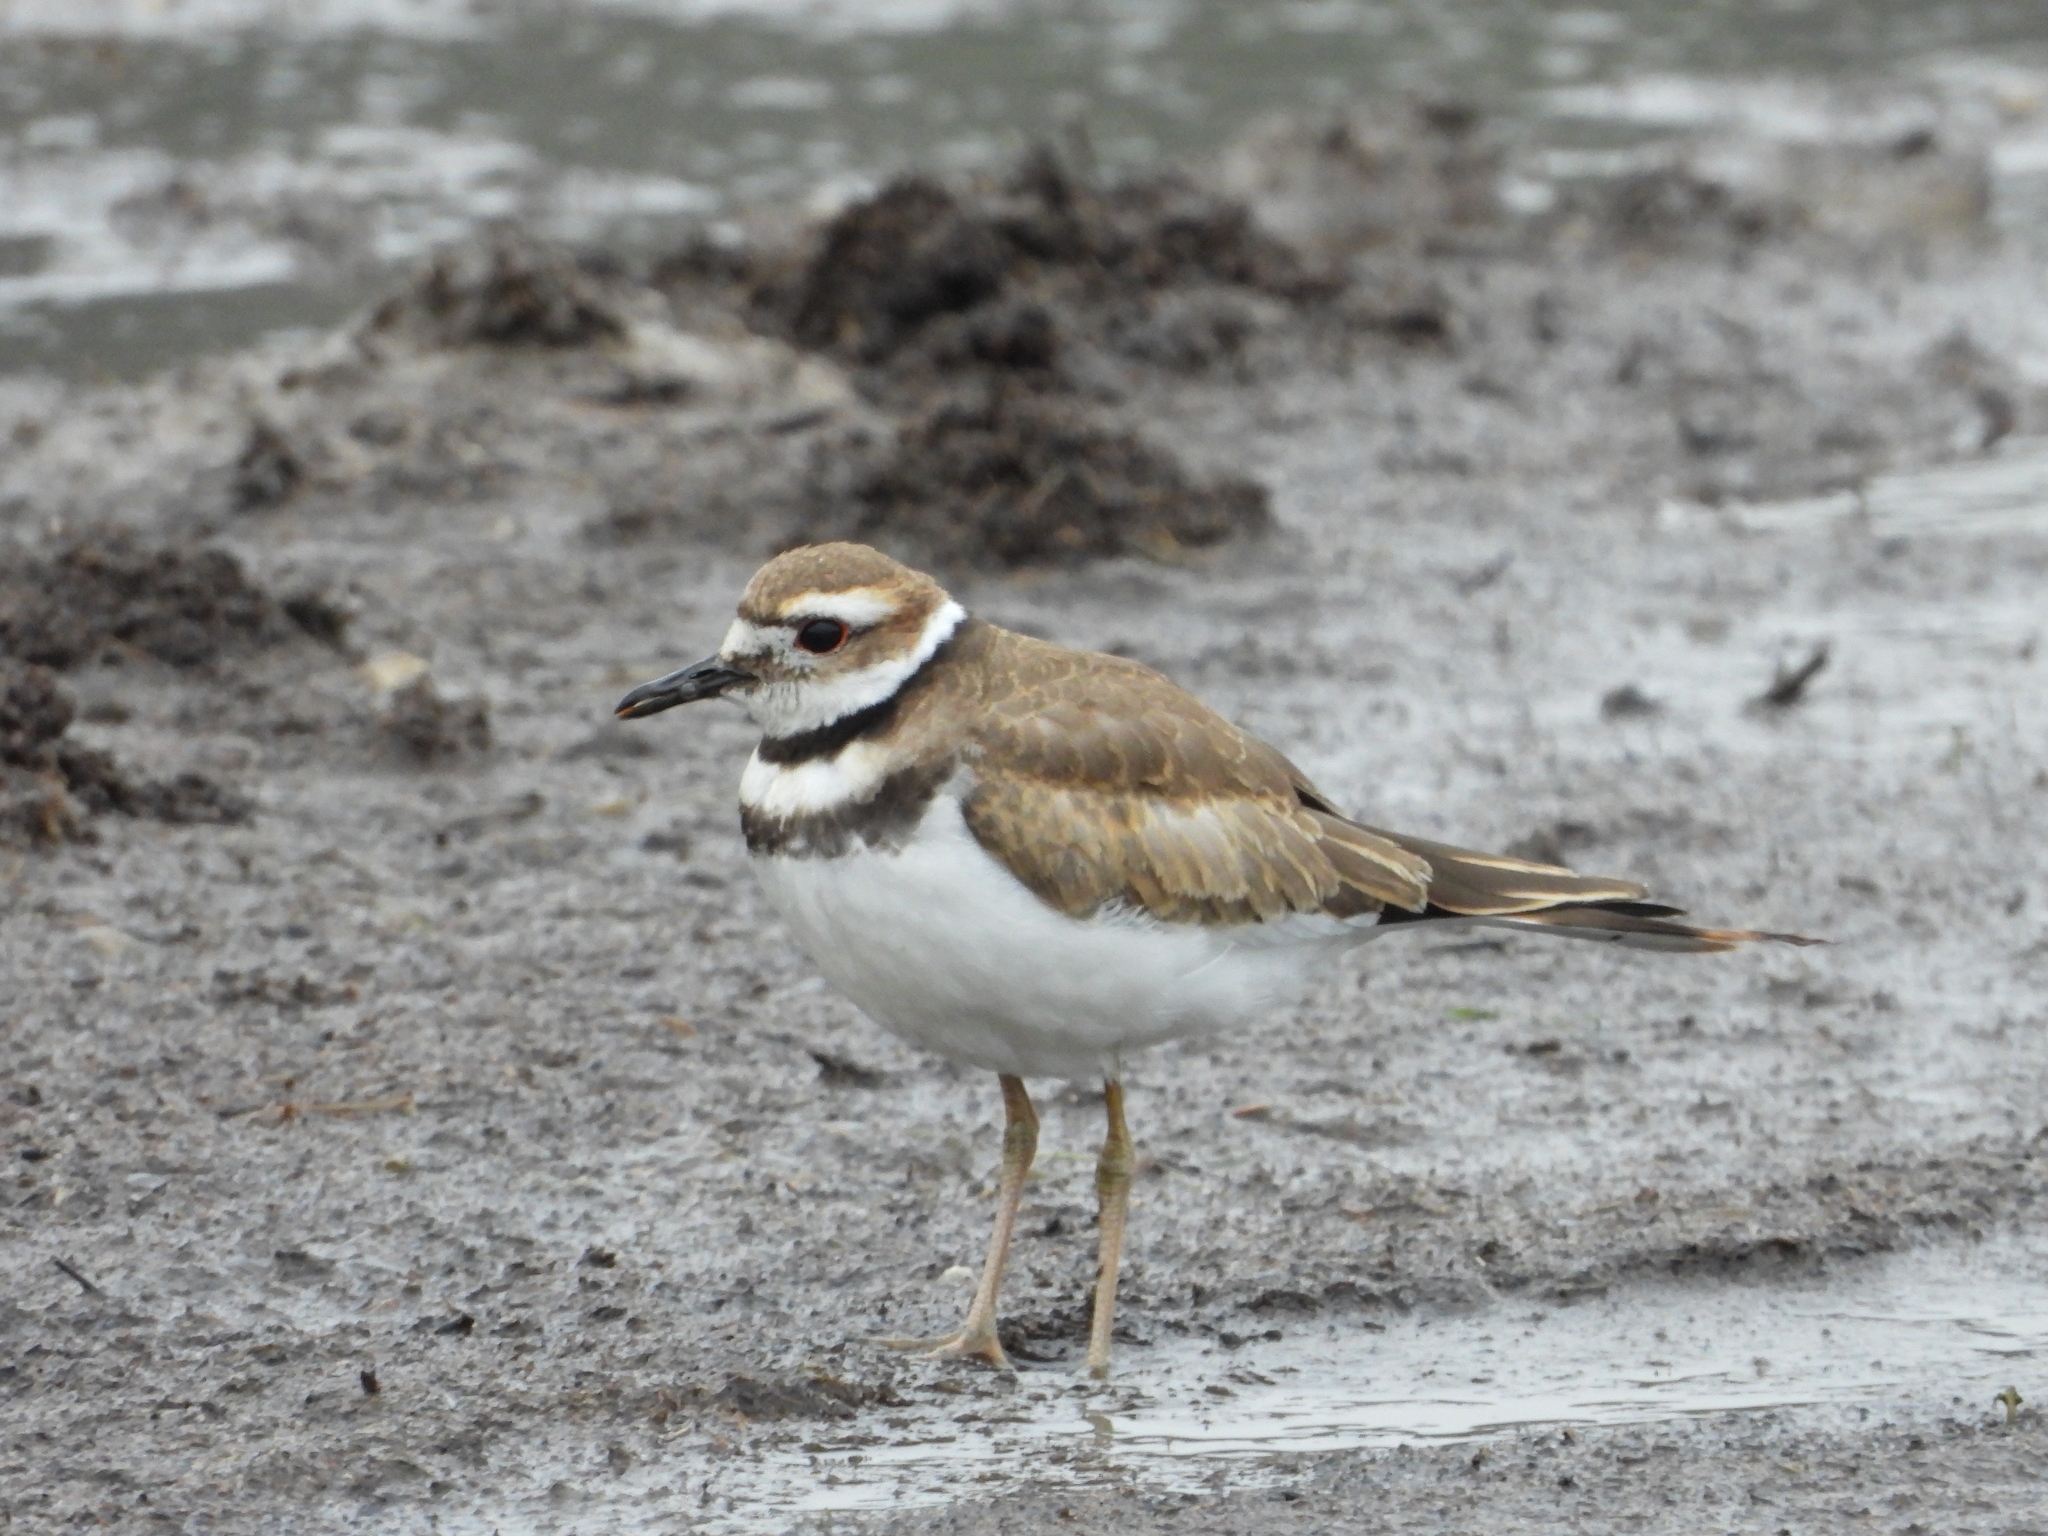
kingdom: Animalia
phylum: Chordata
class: Aves
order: Charadriiformes
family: Charadriidae
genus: Charadrius
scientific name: Charadrius vociferus
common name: Killdeer
